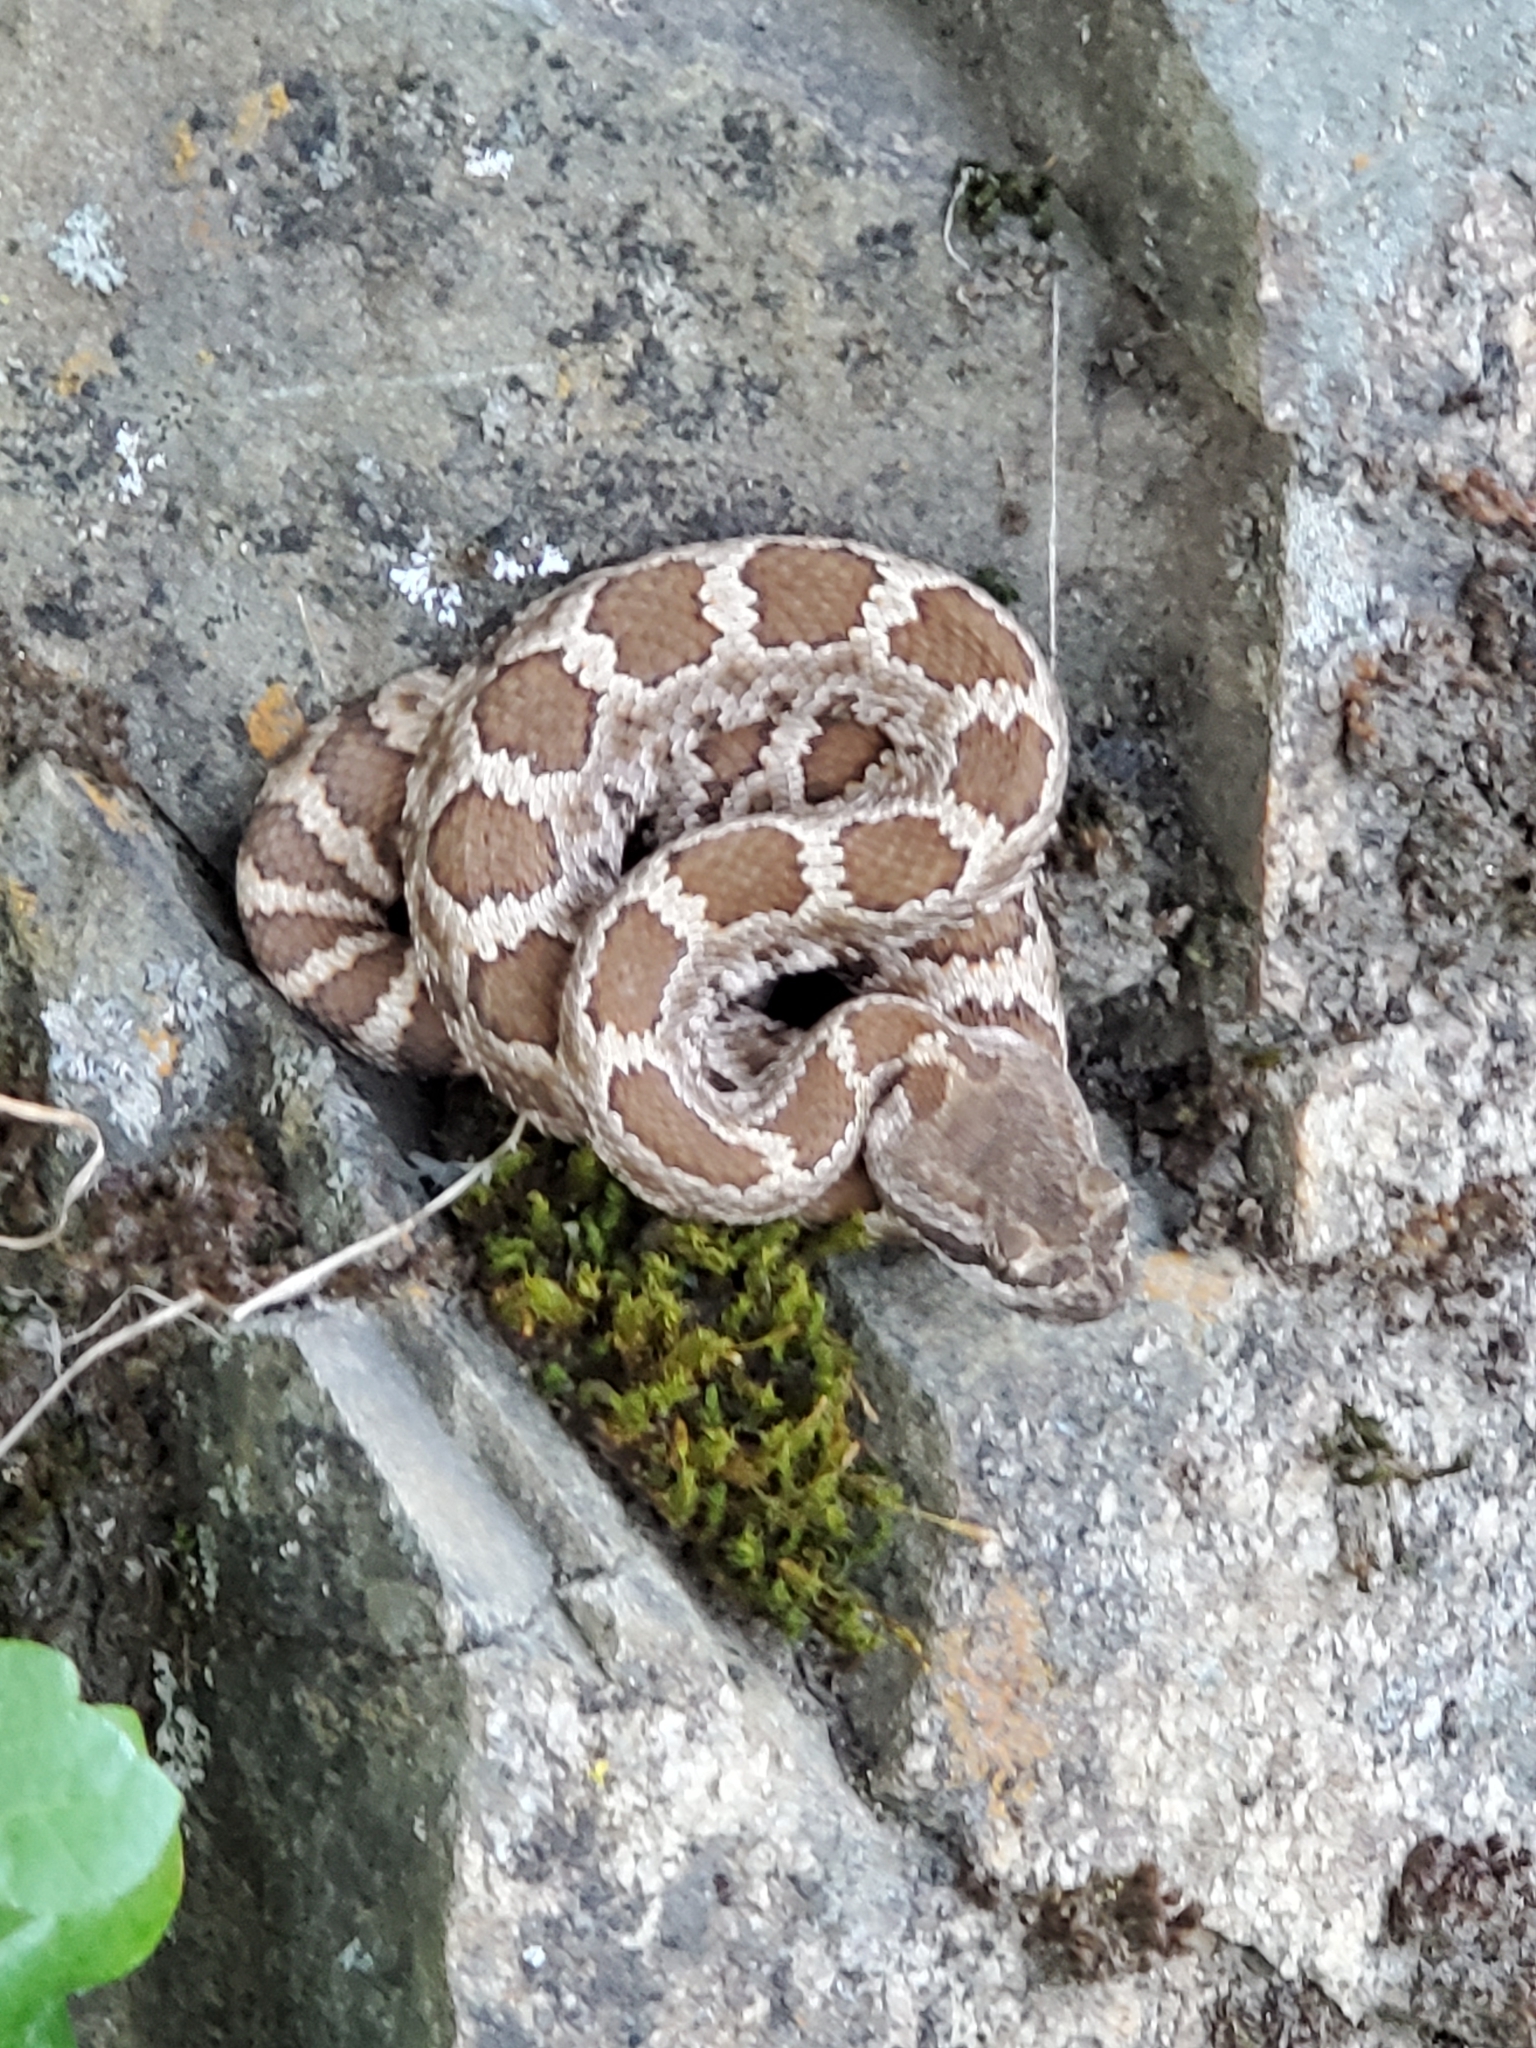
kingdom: Animalia
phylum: Chordata
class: Squamata
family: Viperidae
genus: Crotalus
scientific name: Crotalus oreganus
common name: Abyssus
